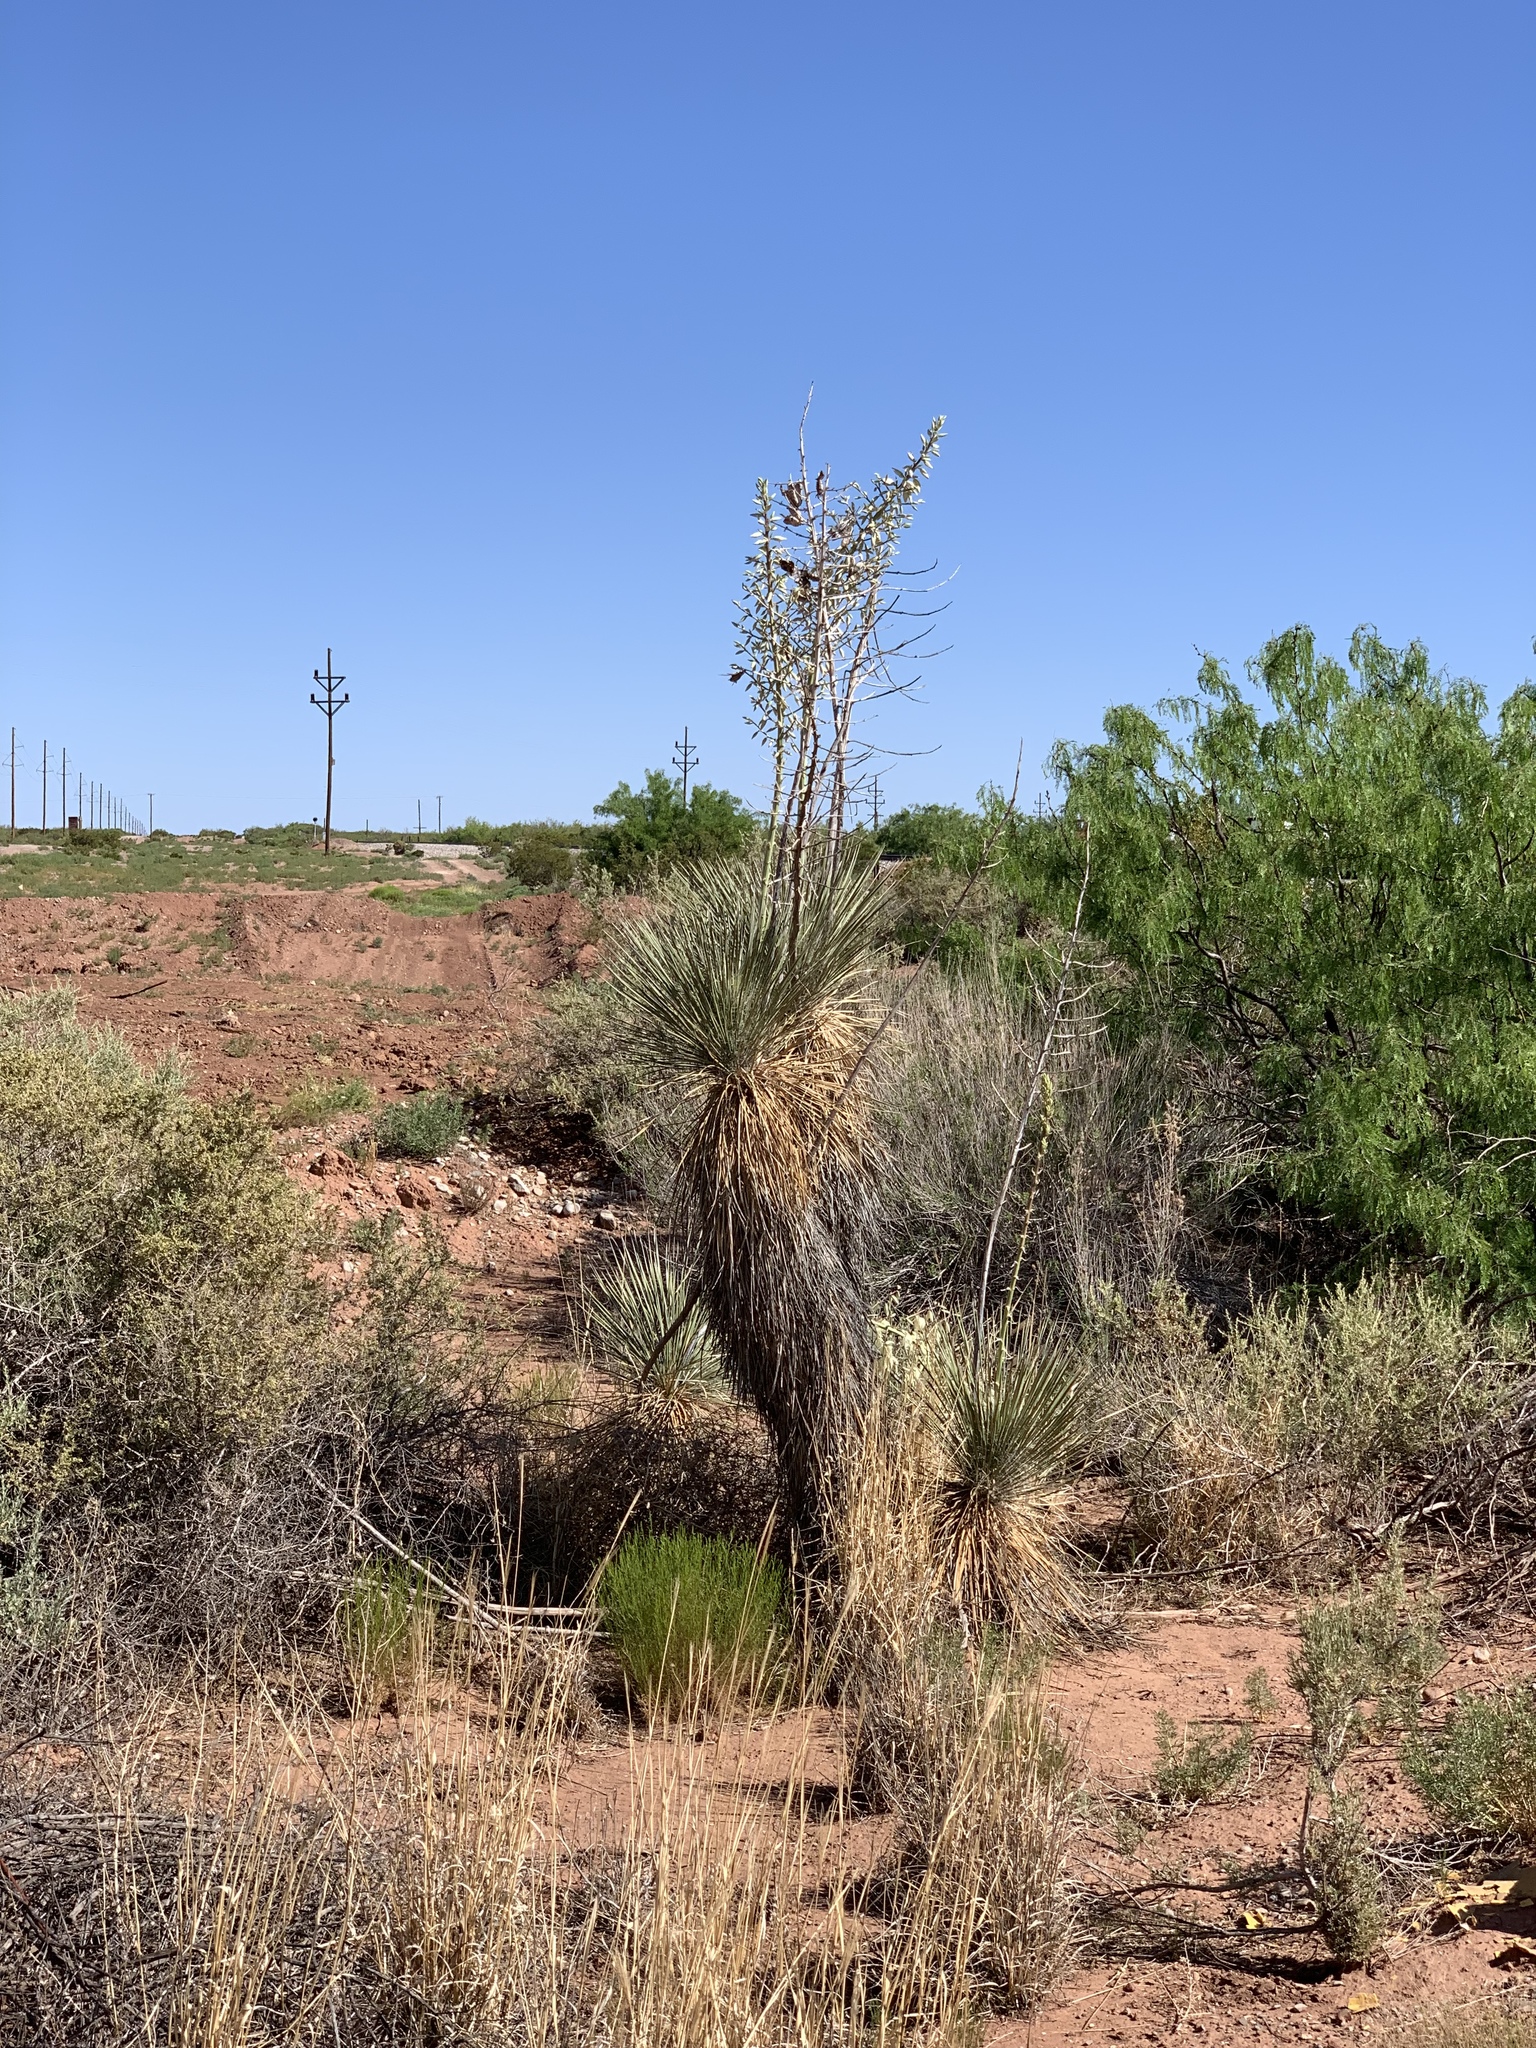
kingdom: Plantae
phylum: Tracheophyta
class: Liliopsida
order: Asparagales
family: Asparagaceae
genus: Yucca
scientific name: Yucca elata
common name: Palmella
